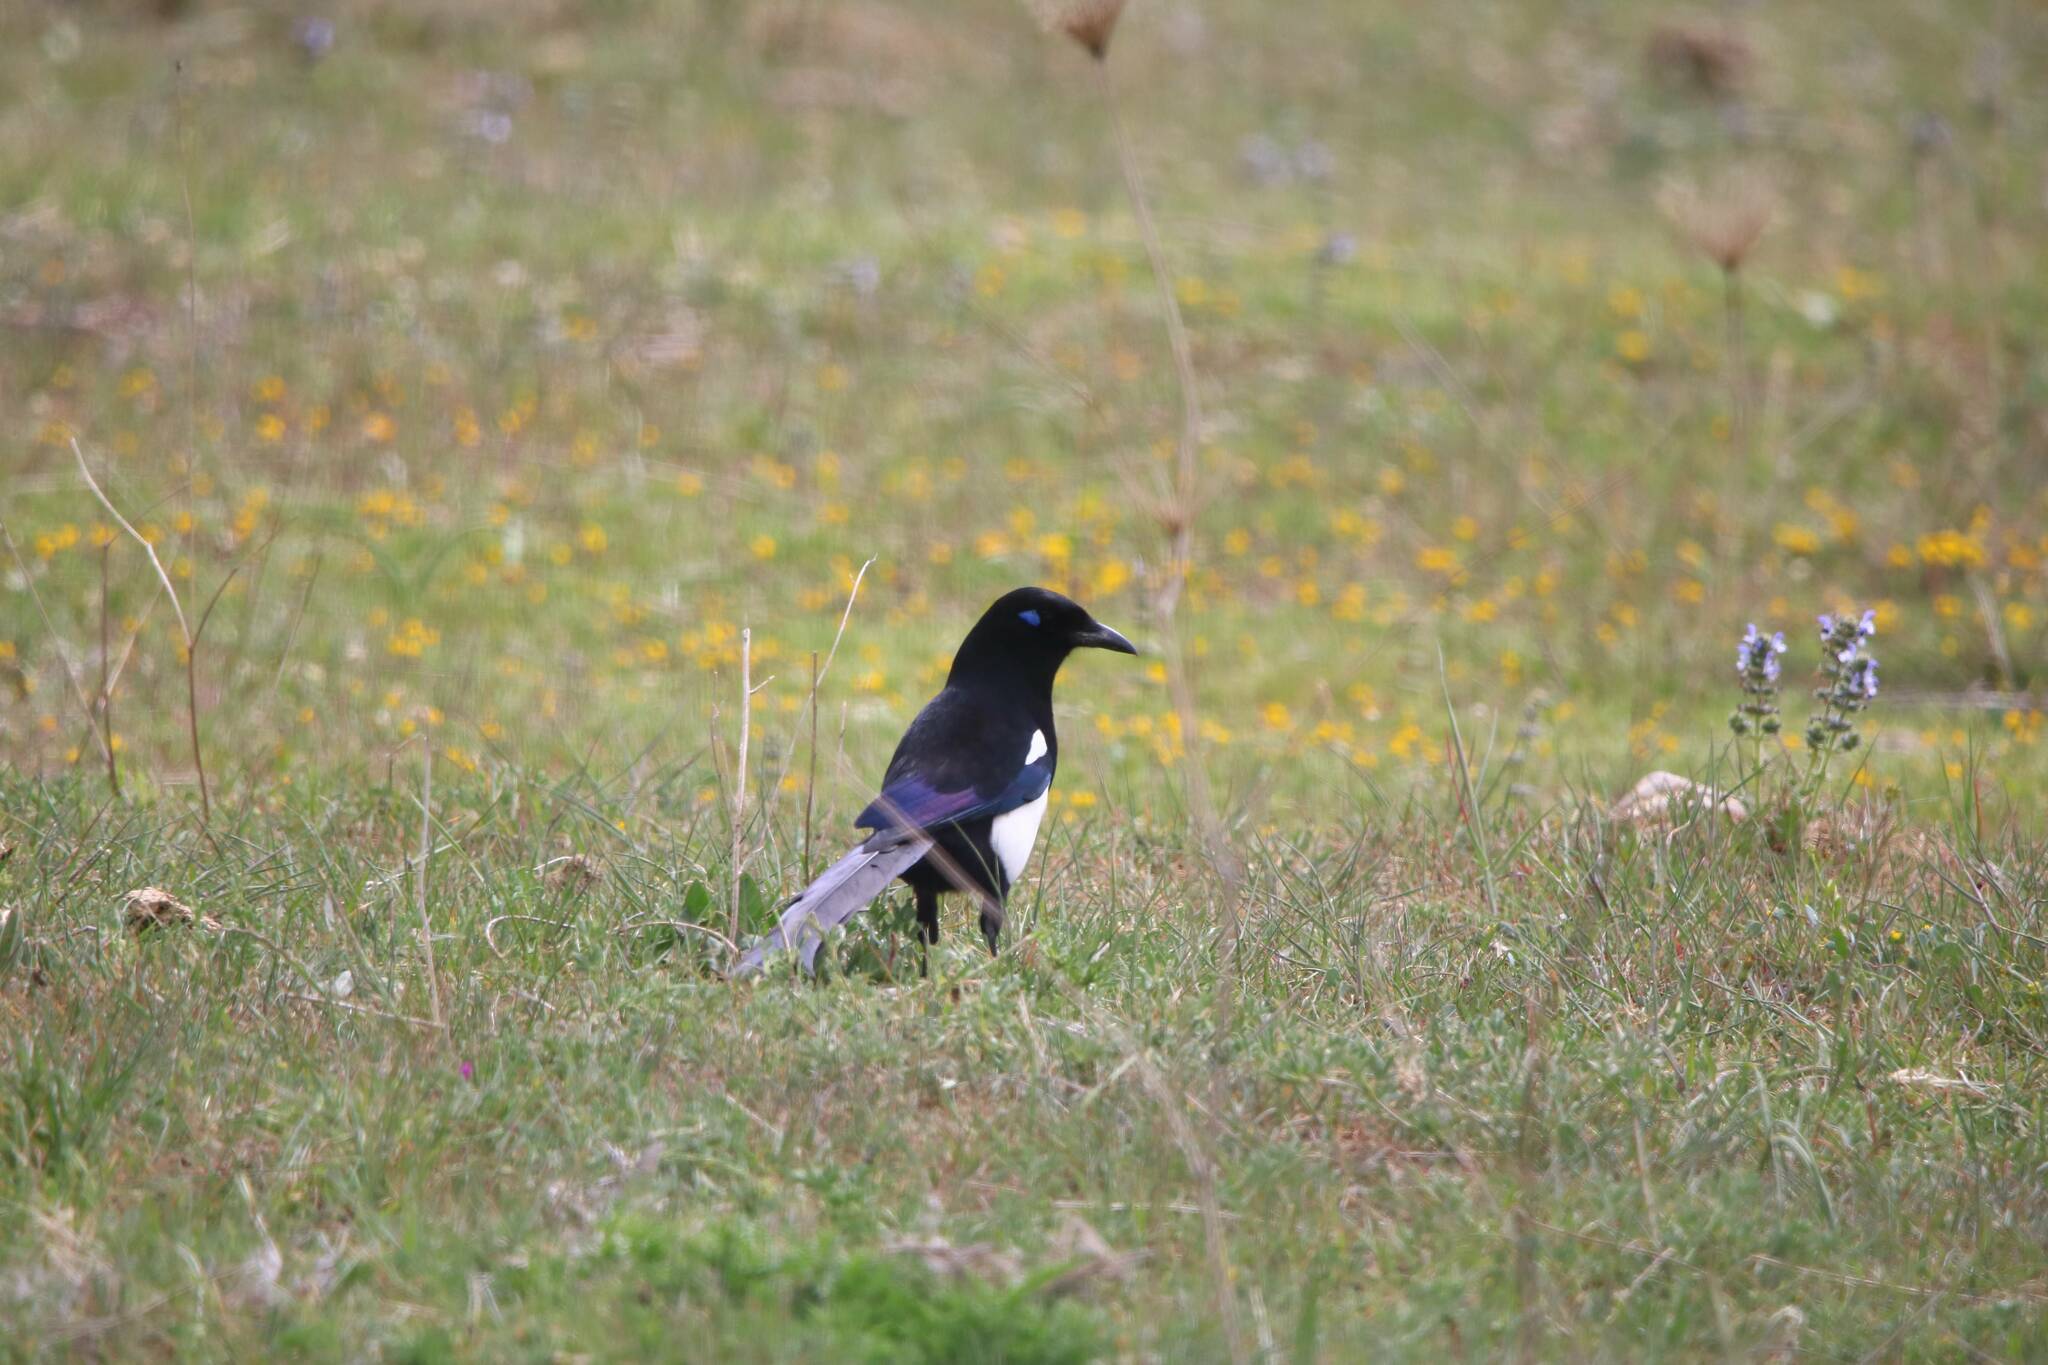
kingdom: Animalia
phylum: Chordata
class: Aves
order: Passeriformes
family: Corvidae
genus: Pica
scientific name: Pica mauritanica
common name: Maghreb magpie
